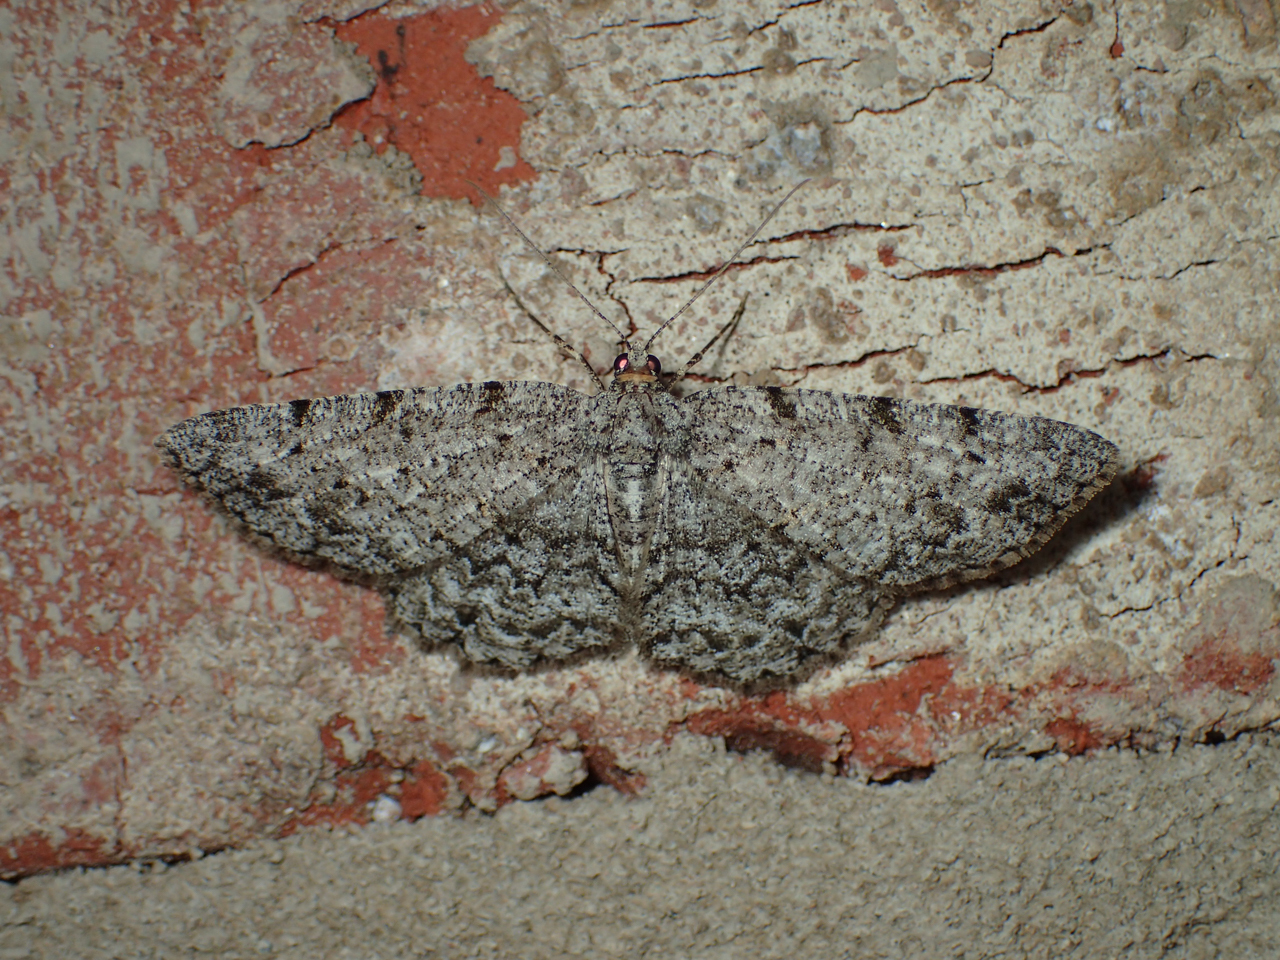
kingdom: Animalia
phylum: Arthropoda
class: Insecta
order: Lepidoptera
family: Geometridae
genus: Protoboarmia
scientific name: Protoboarmia porcelaria
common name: Porcelain gray
